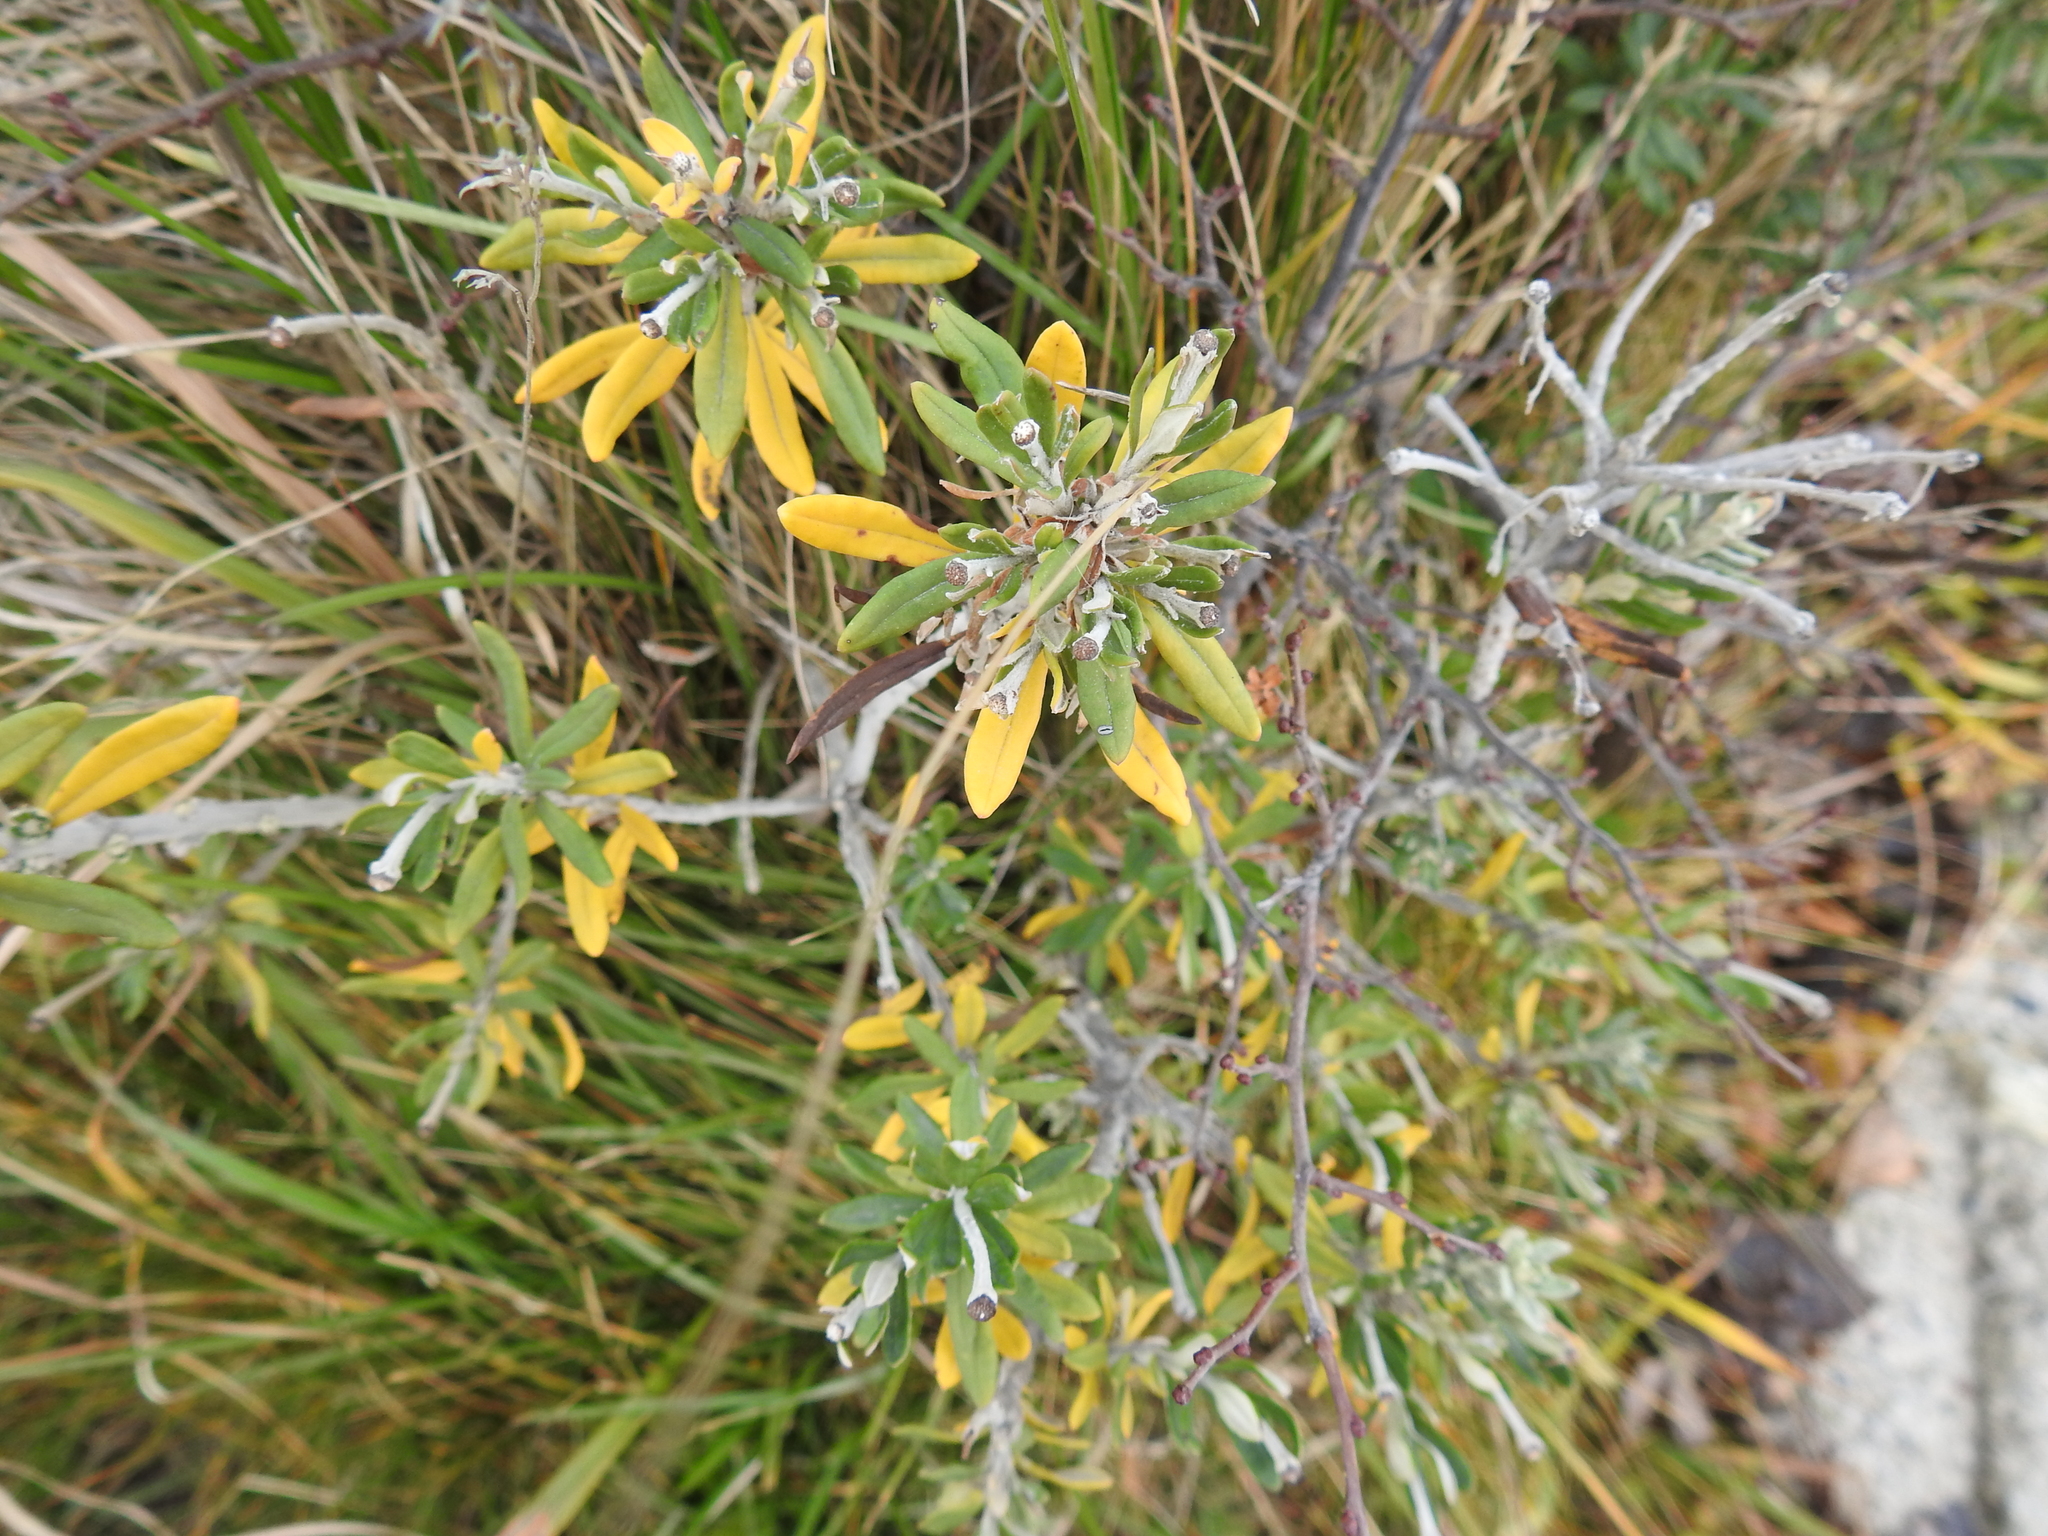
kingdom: Plantae
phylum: Tracheophyta
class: Magnoliopsida
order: Asterales
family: Asteraceae
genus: Chiliotrichum
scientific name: Chiliotrichum diffusum
